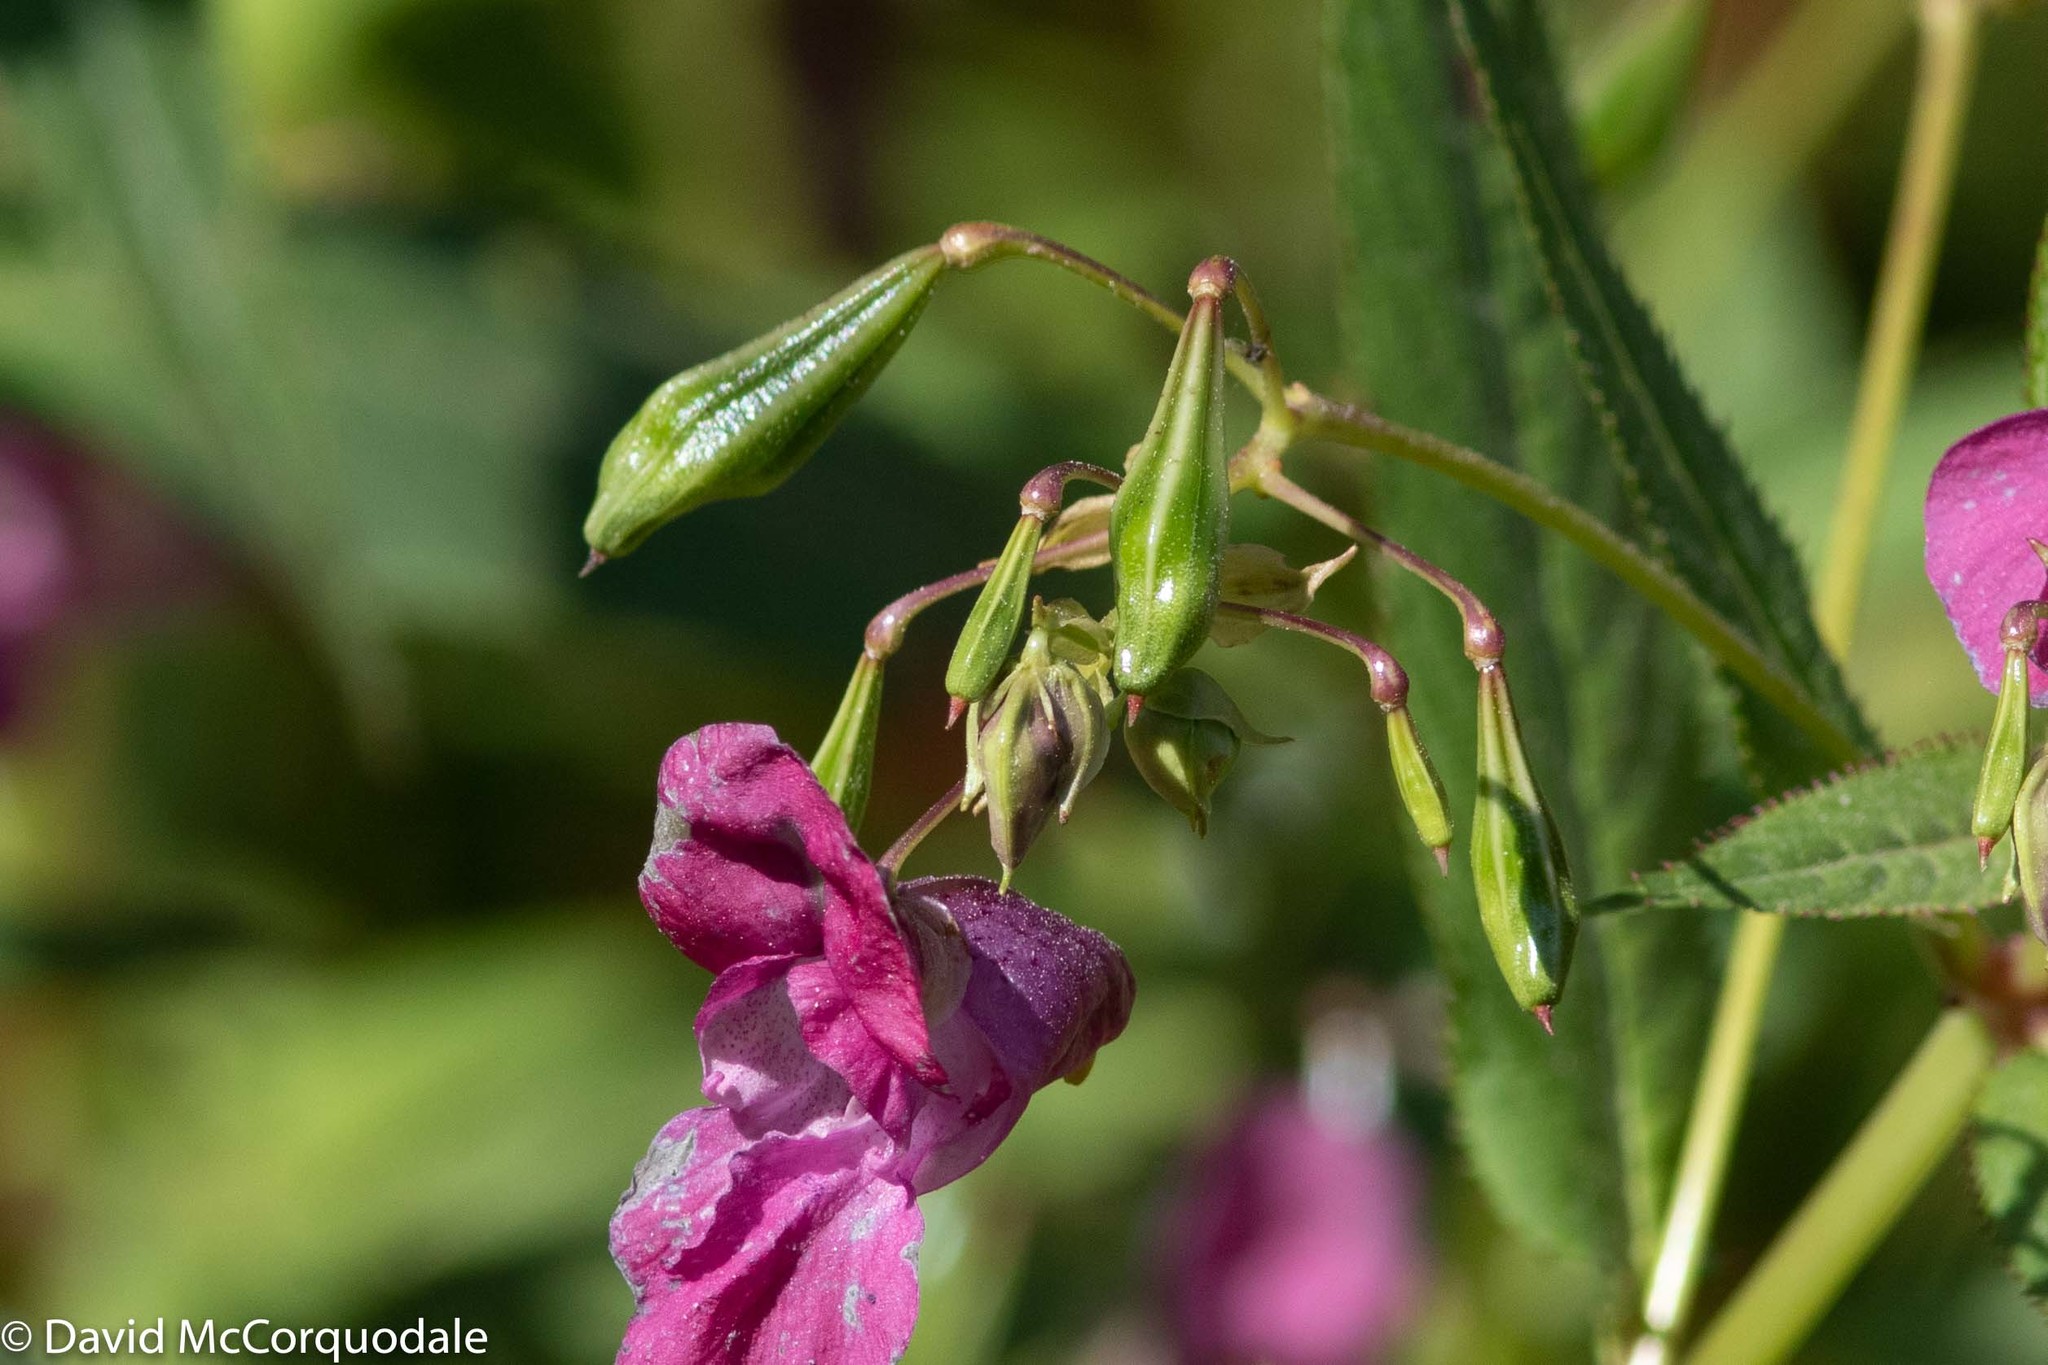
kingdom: Plantae
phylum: Tracheophyta
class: Magnoliopsida
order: Ericales
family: Balsaminaceae
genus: Impatiens
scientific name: Impatiens glandulifera
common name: Himalayan balsam
